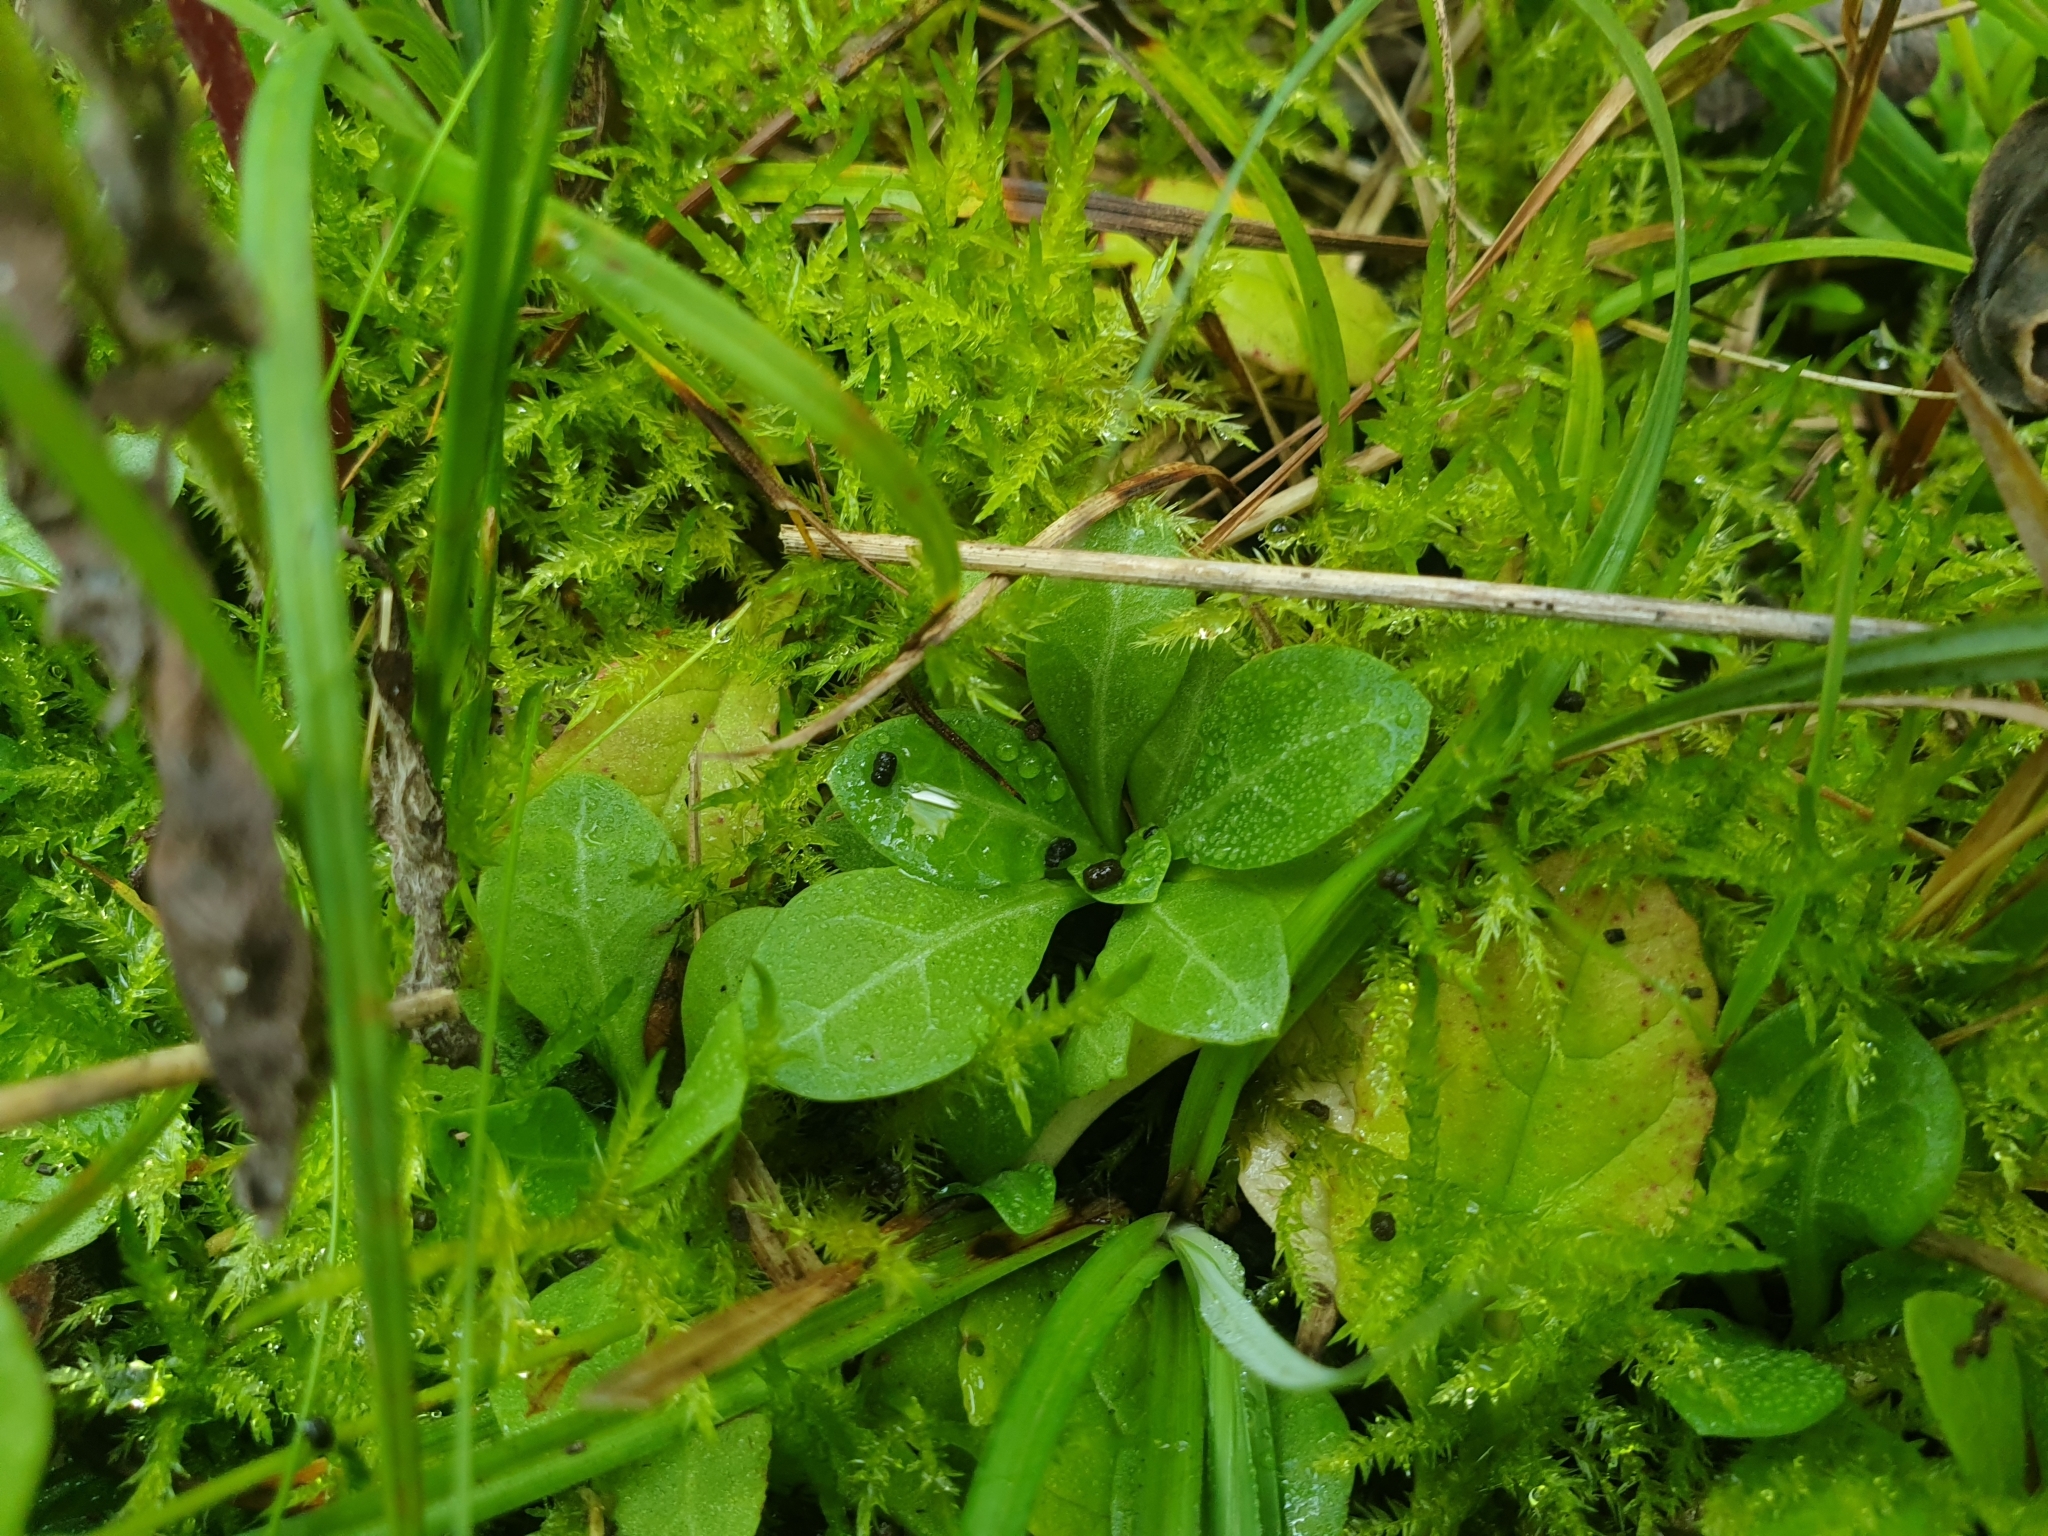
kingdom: Plantae
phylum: Tracheophyta
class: Magnoliopsida
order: Ericales
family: Primulaceae
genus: Samolus
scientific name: Samolus valerandi
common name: Brookweed
